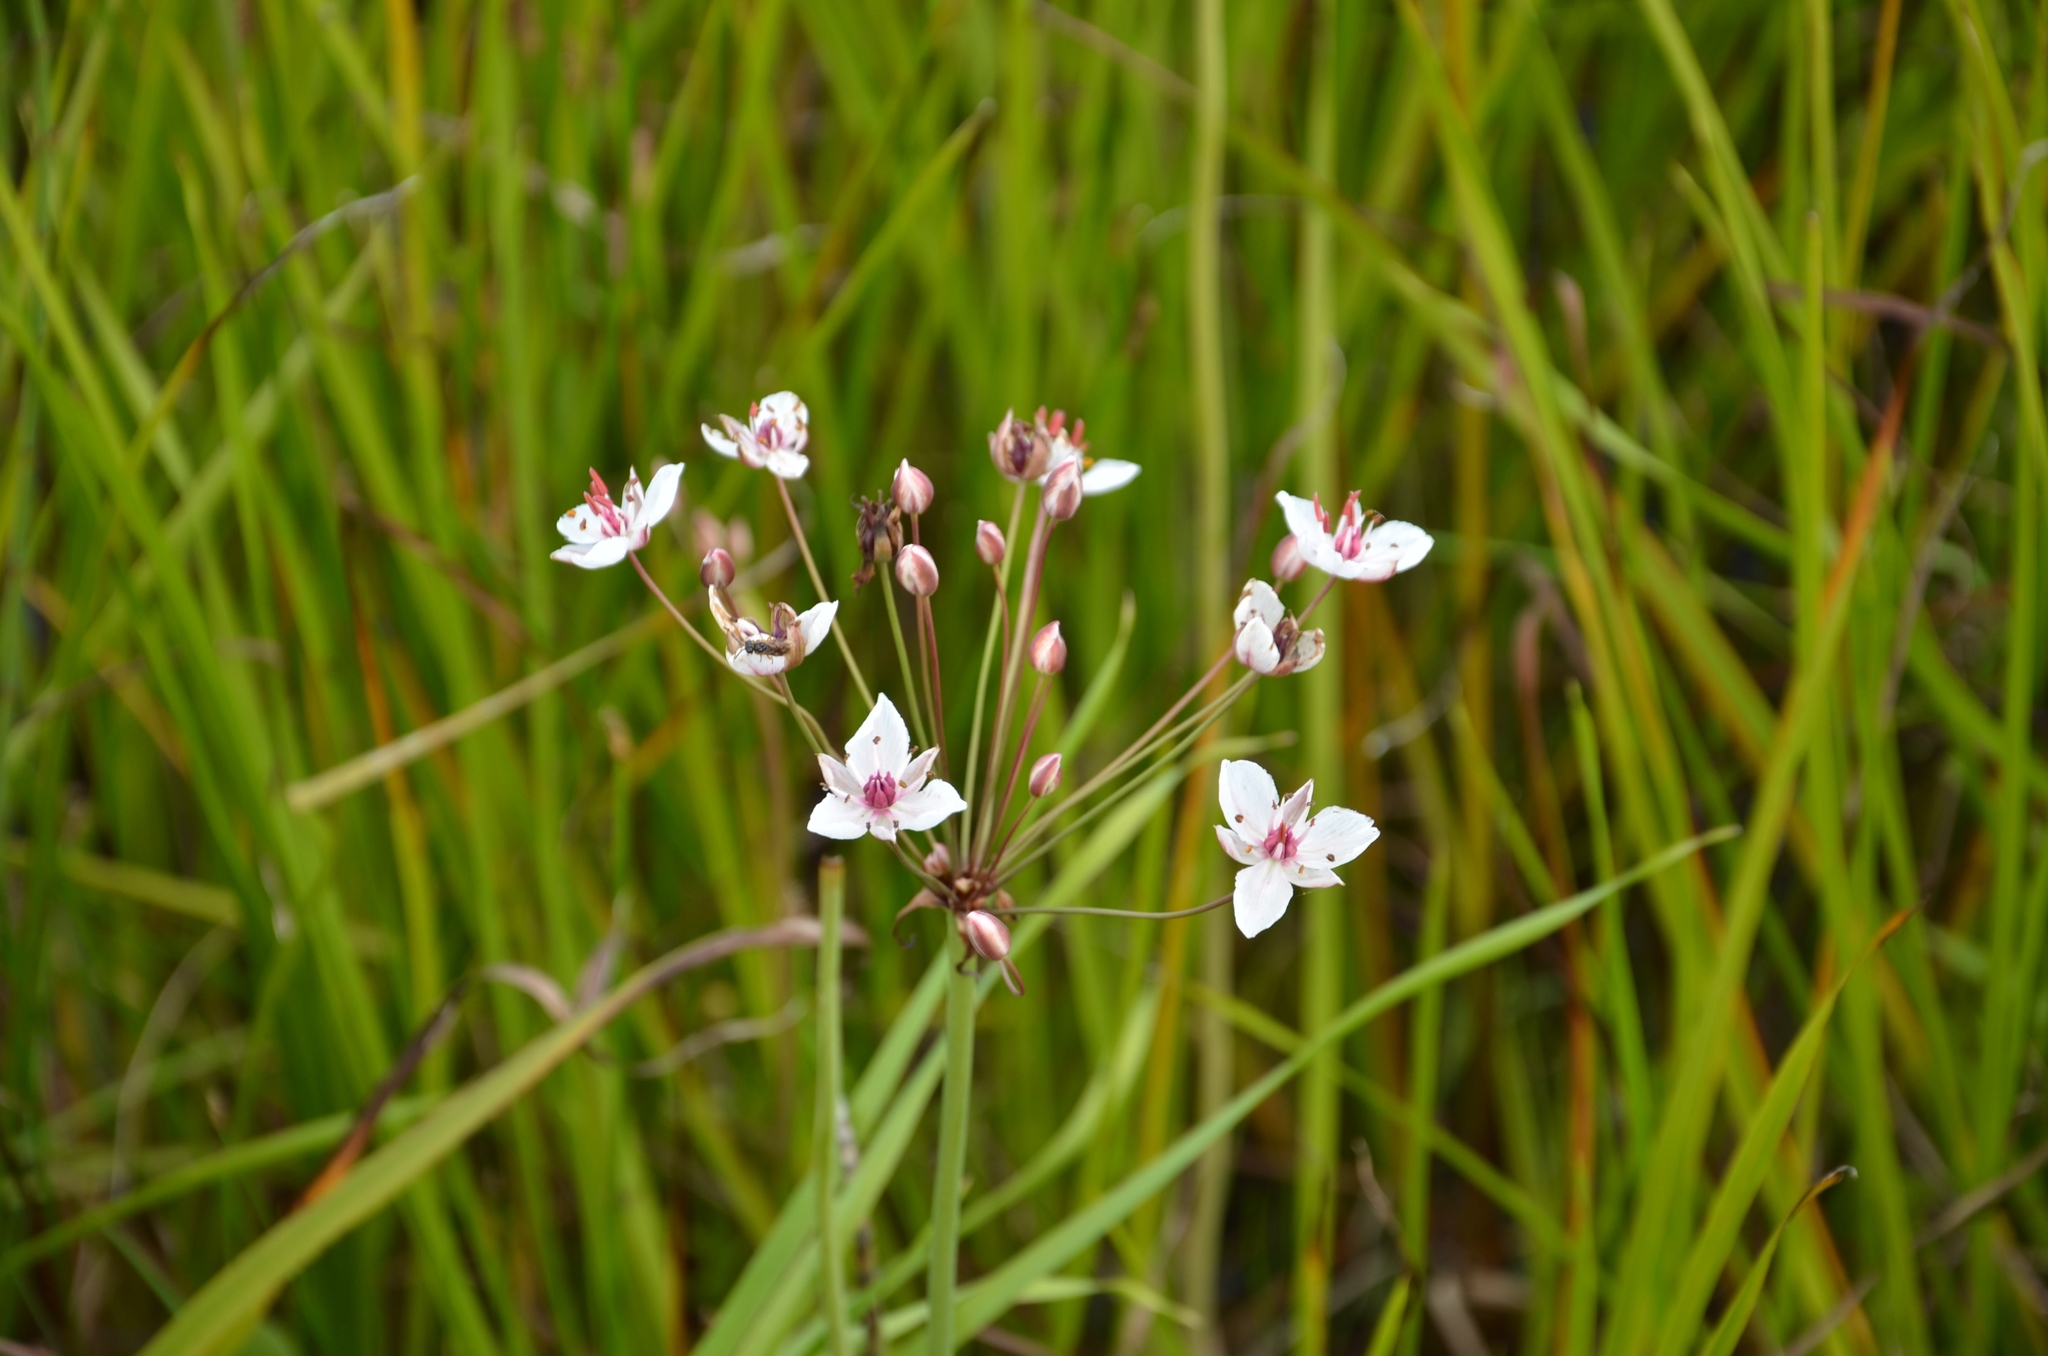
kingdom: Plantae
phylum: Tracheophyta
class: Liliopsida
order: Alismatales
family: Butomaceae
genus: Butomus
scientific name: Butomus umbellatus
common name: Flowering-rush
